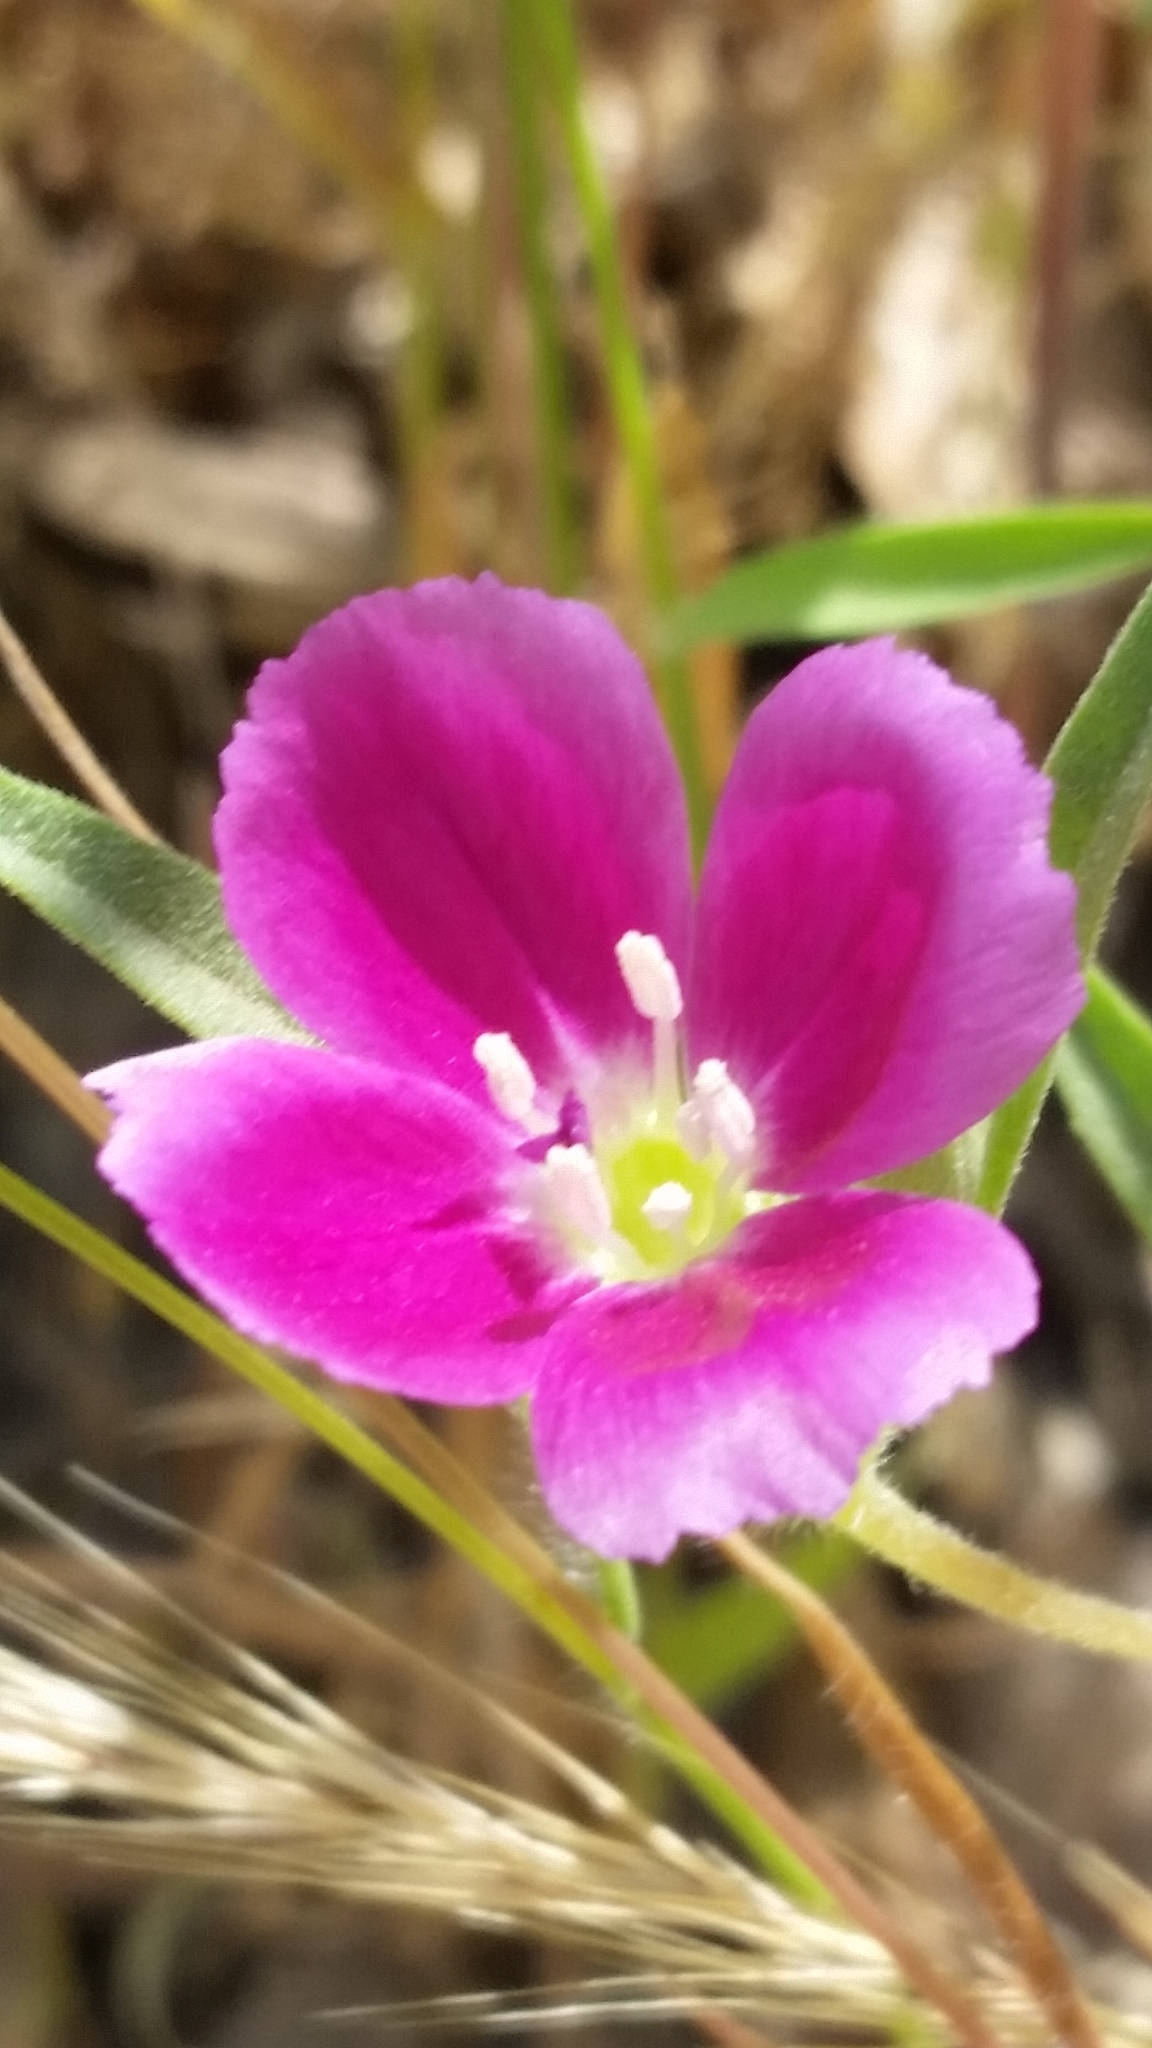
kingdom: Plantae
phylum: Tracheophyta
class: Magnoliopsida
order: Myrtales
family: Onagraceae
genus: Clarkia
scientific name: Clarkia purpurea
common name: Purple clarkia
